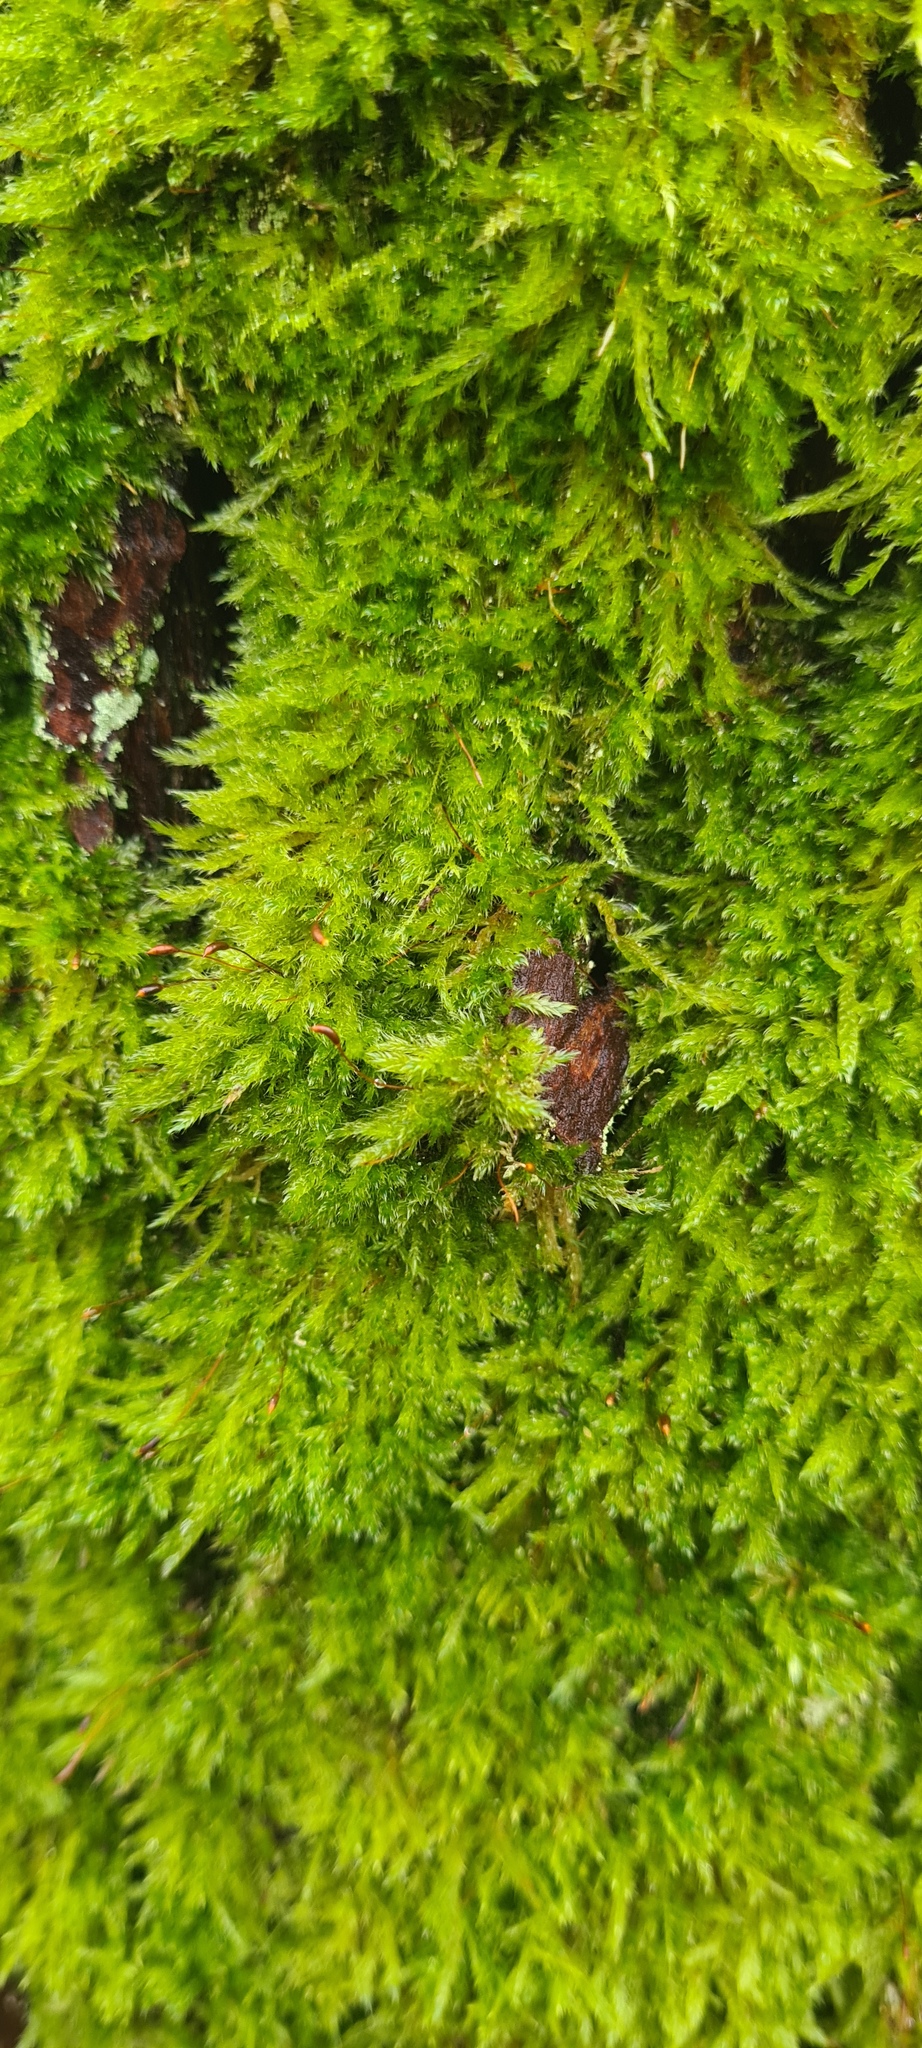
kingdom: Plantae
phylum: Bryophyta
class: Bryopsida
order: Hypnales
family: Hypnaceae
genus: Hypnum
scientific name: Hypnum cupressiforme
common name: Cypress-leaved plait-moss
